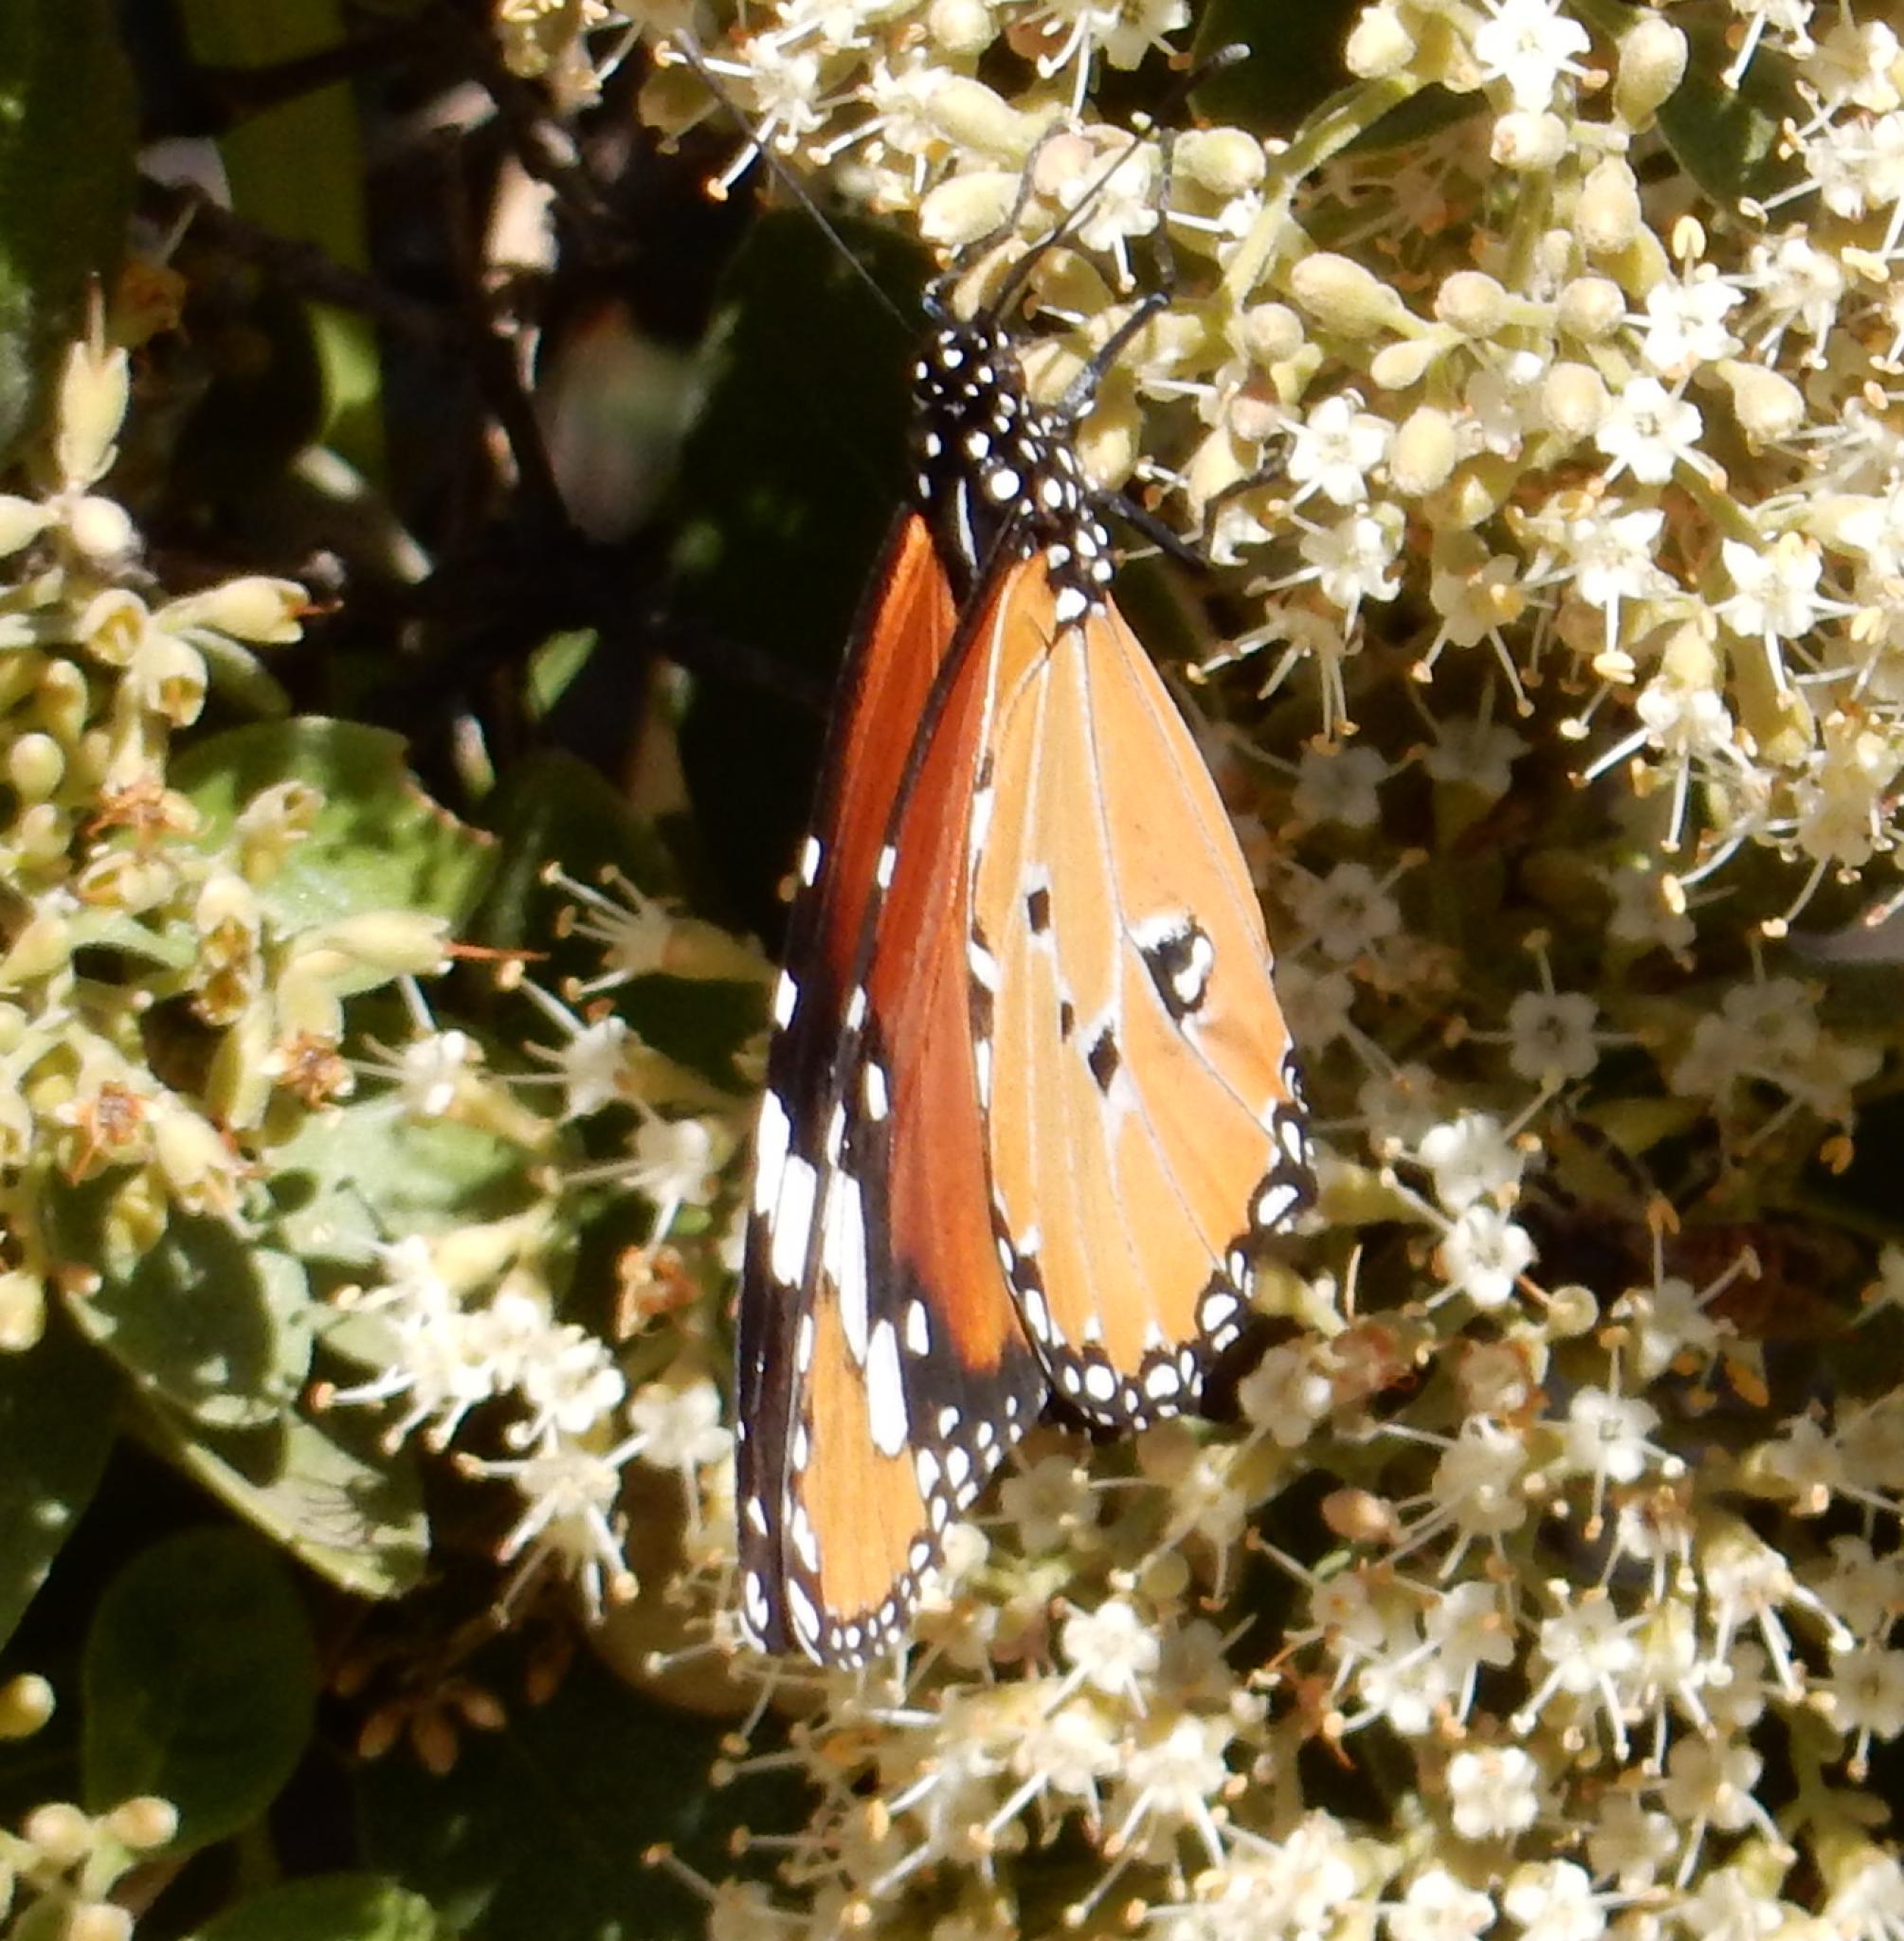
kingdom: Animalia
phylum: Arthropoda
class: Insecta
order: Lepidoptera
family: Nymphalidae
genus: Danaus
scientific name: Danaus chrysippus
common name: Plain tiger
